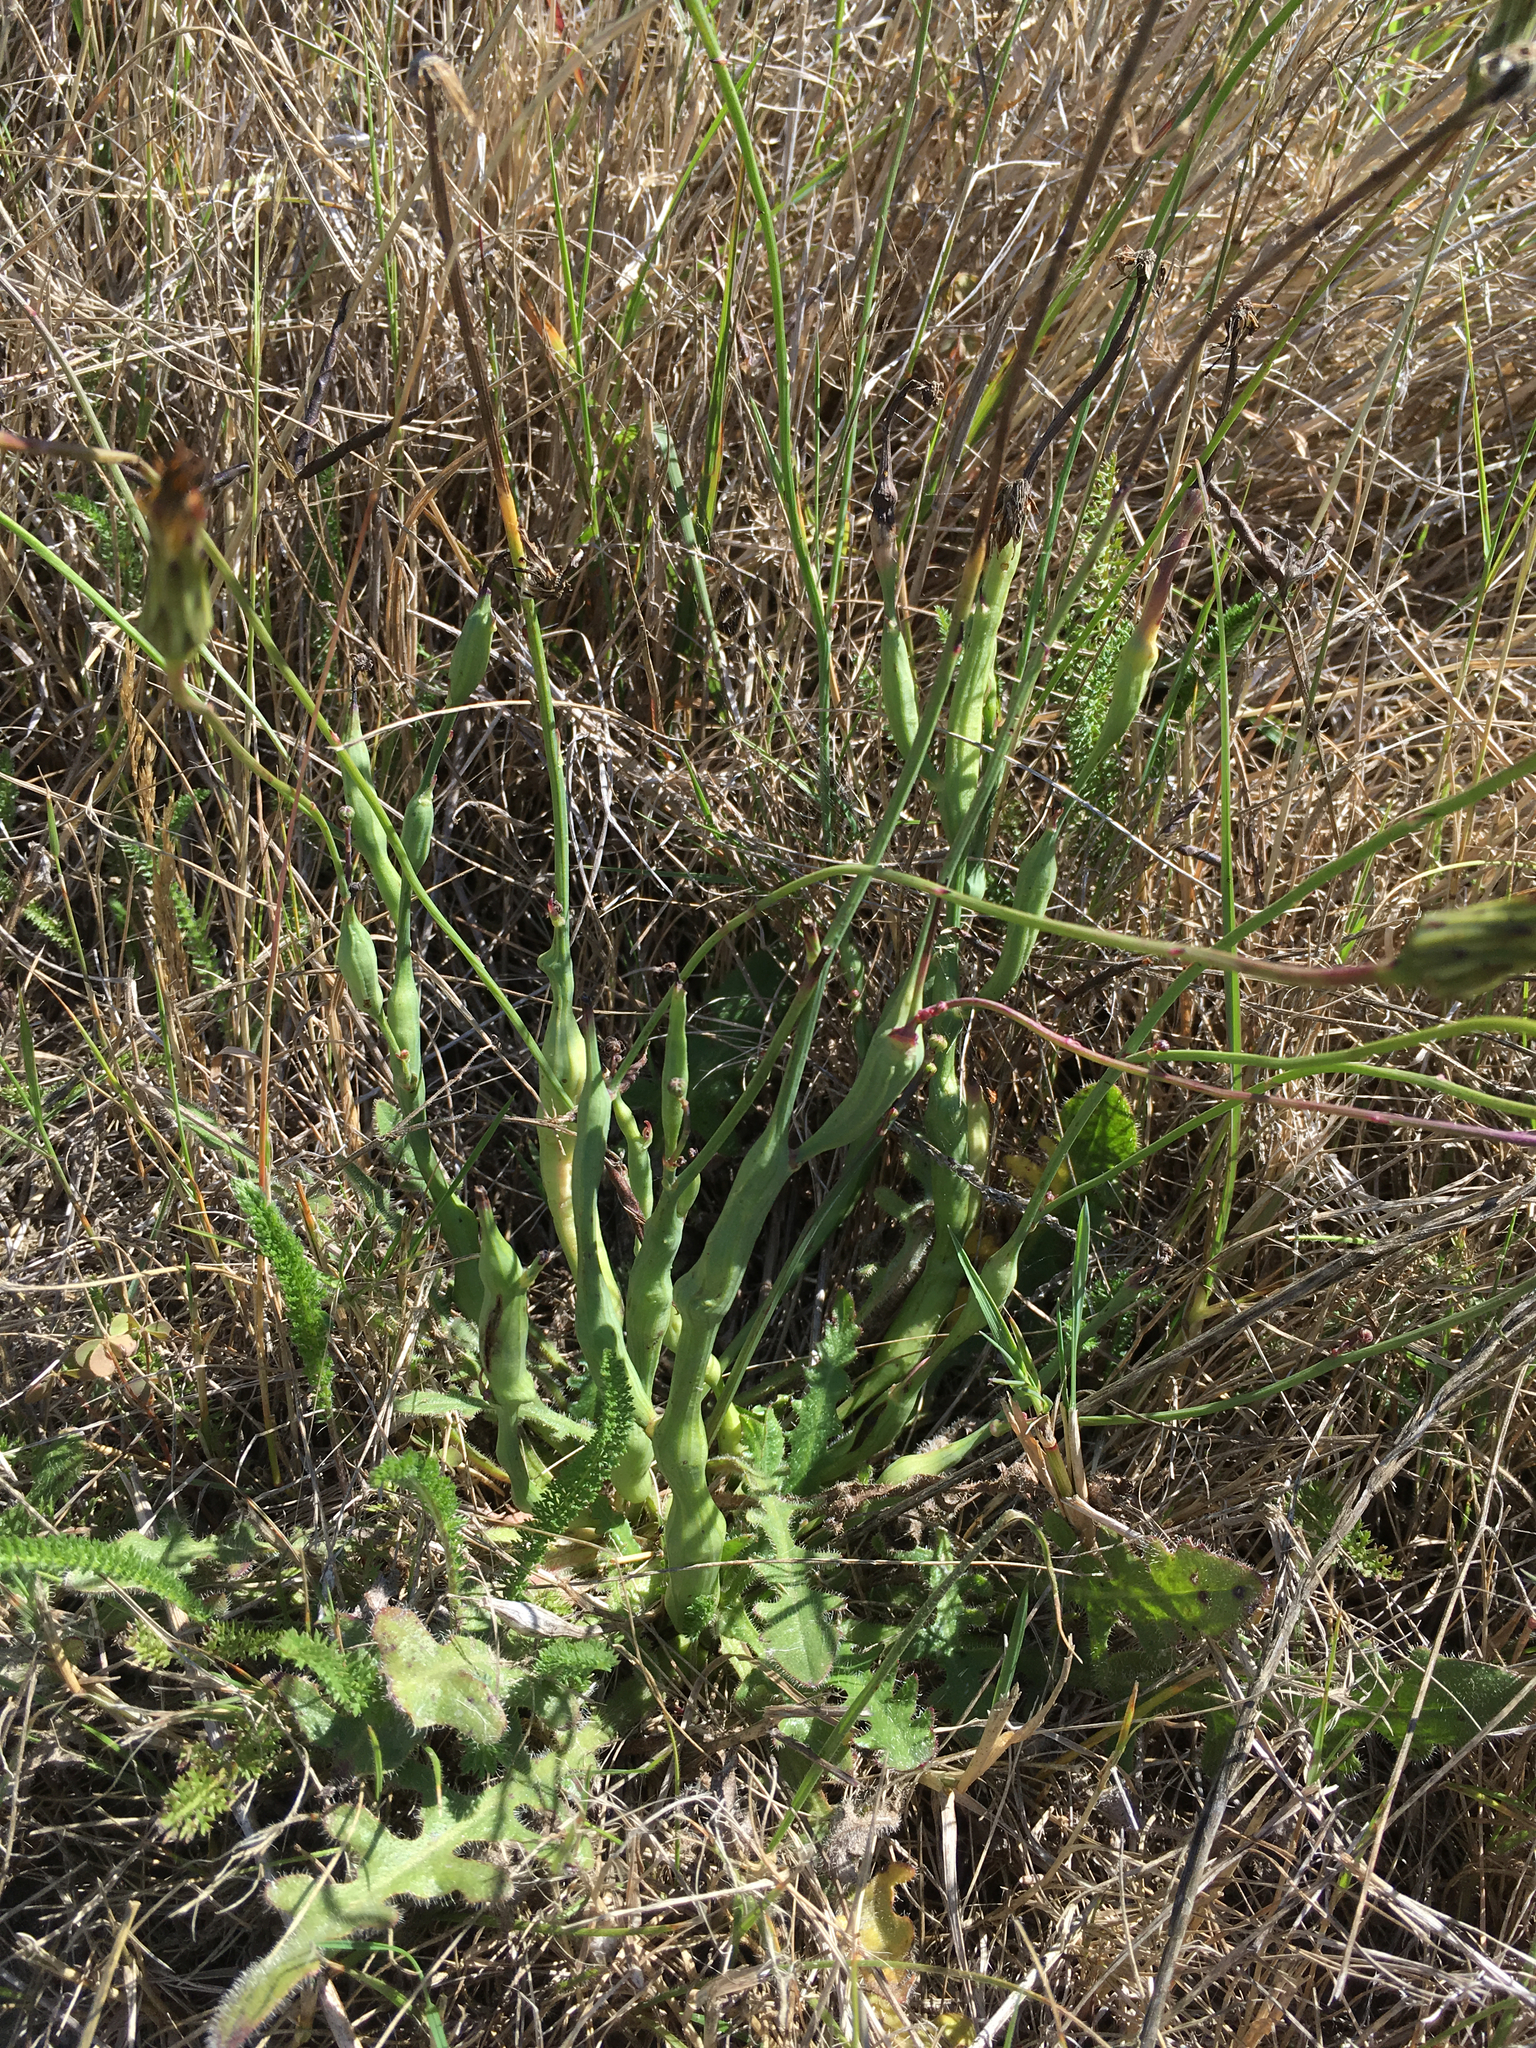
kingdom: Animalia
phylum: Arthropoda
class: Insecta
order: Hymenoptera
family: Cynipidae
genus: Phanacis
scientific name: Phanacis hypochoeridis
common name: Gall wasp
